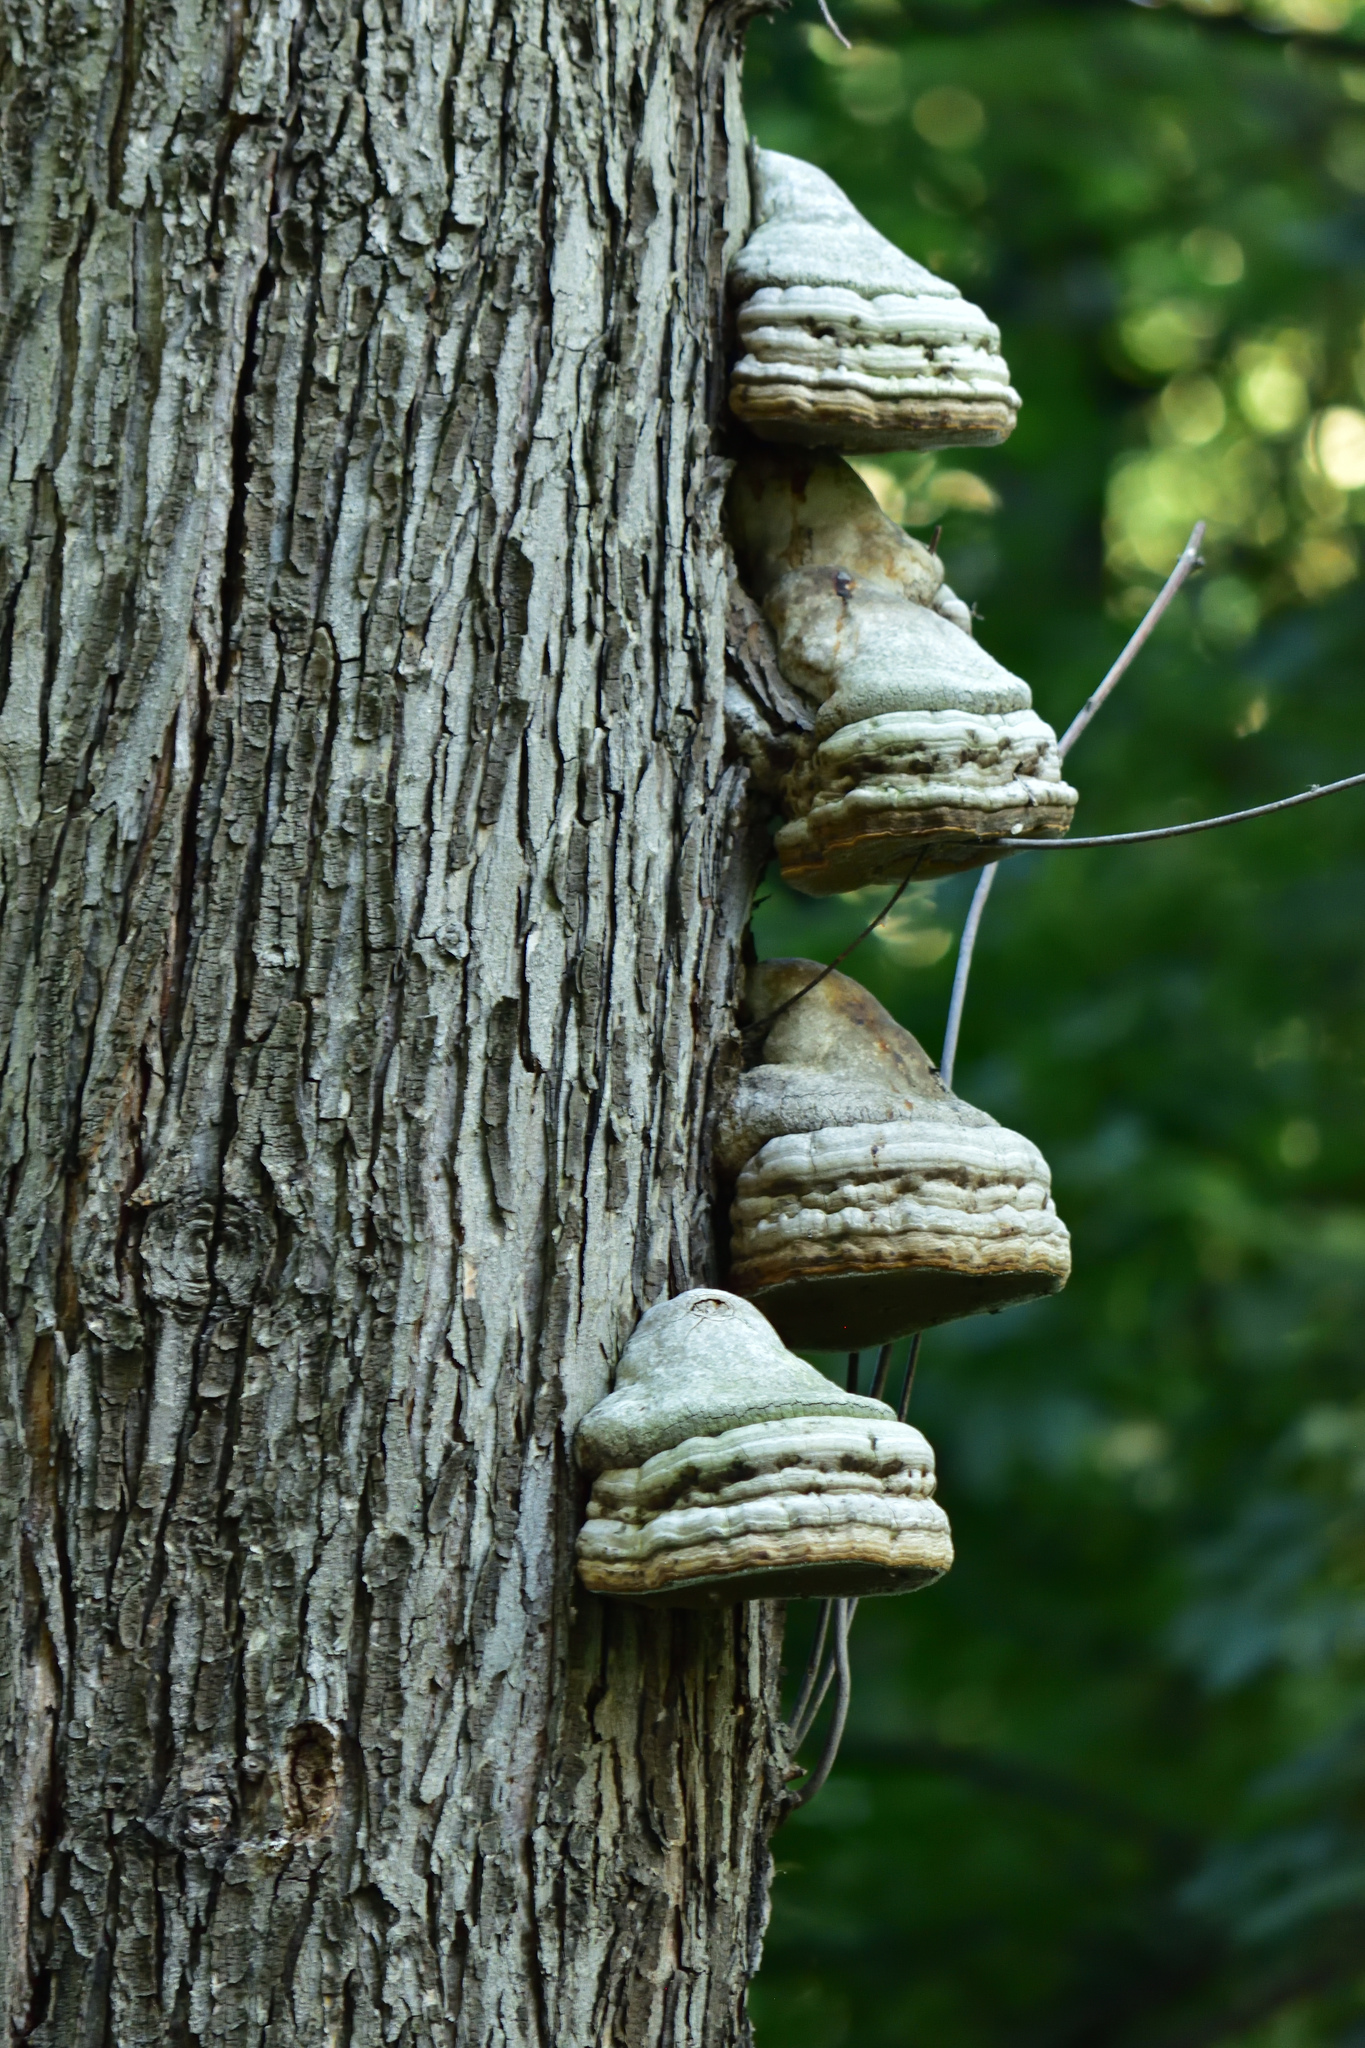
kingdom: Fungi
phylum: Basidiomycota
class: Agaricomycetes
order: Polyporales
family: Polyporaceae
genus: Fomes
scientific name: Fomes fomentarius
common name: Hoof fungus
